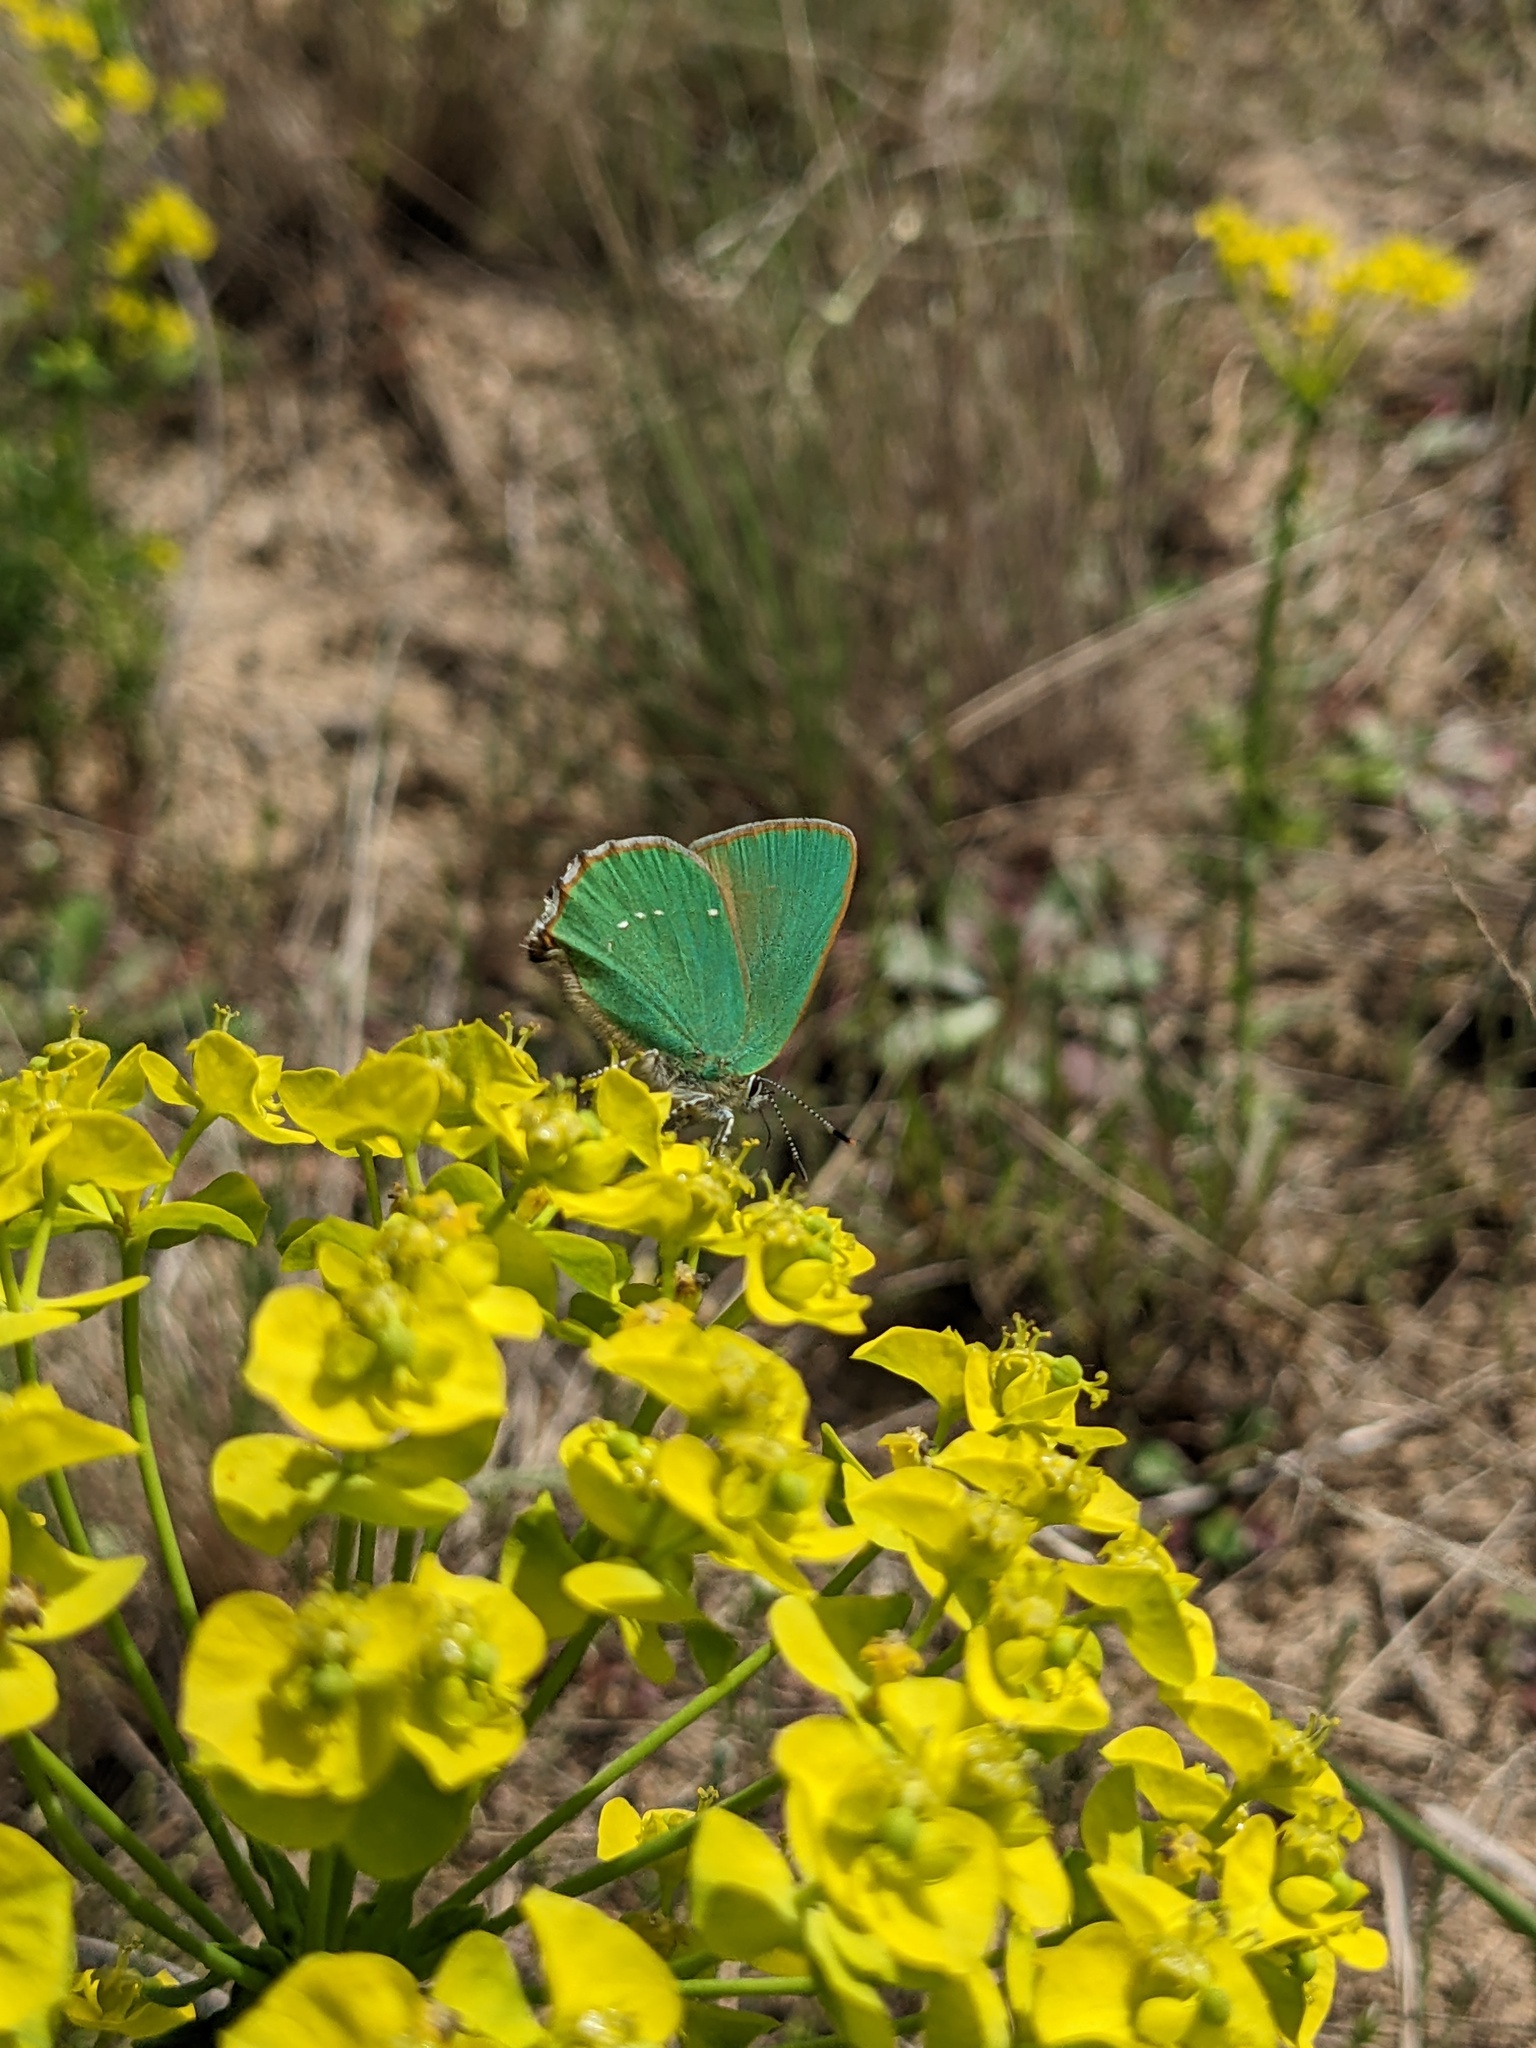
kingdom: Animalia
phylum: Arthropoda
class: Insecta
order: Lepidoptera
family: Lycaenidae
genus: Callophrys
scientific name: Callophrys rubi
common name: Green hairstreak
